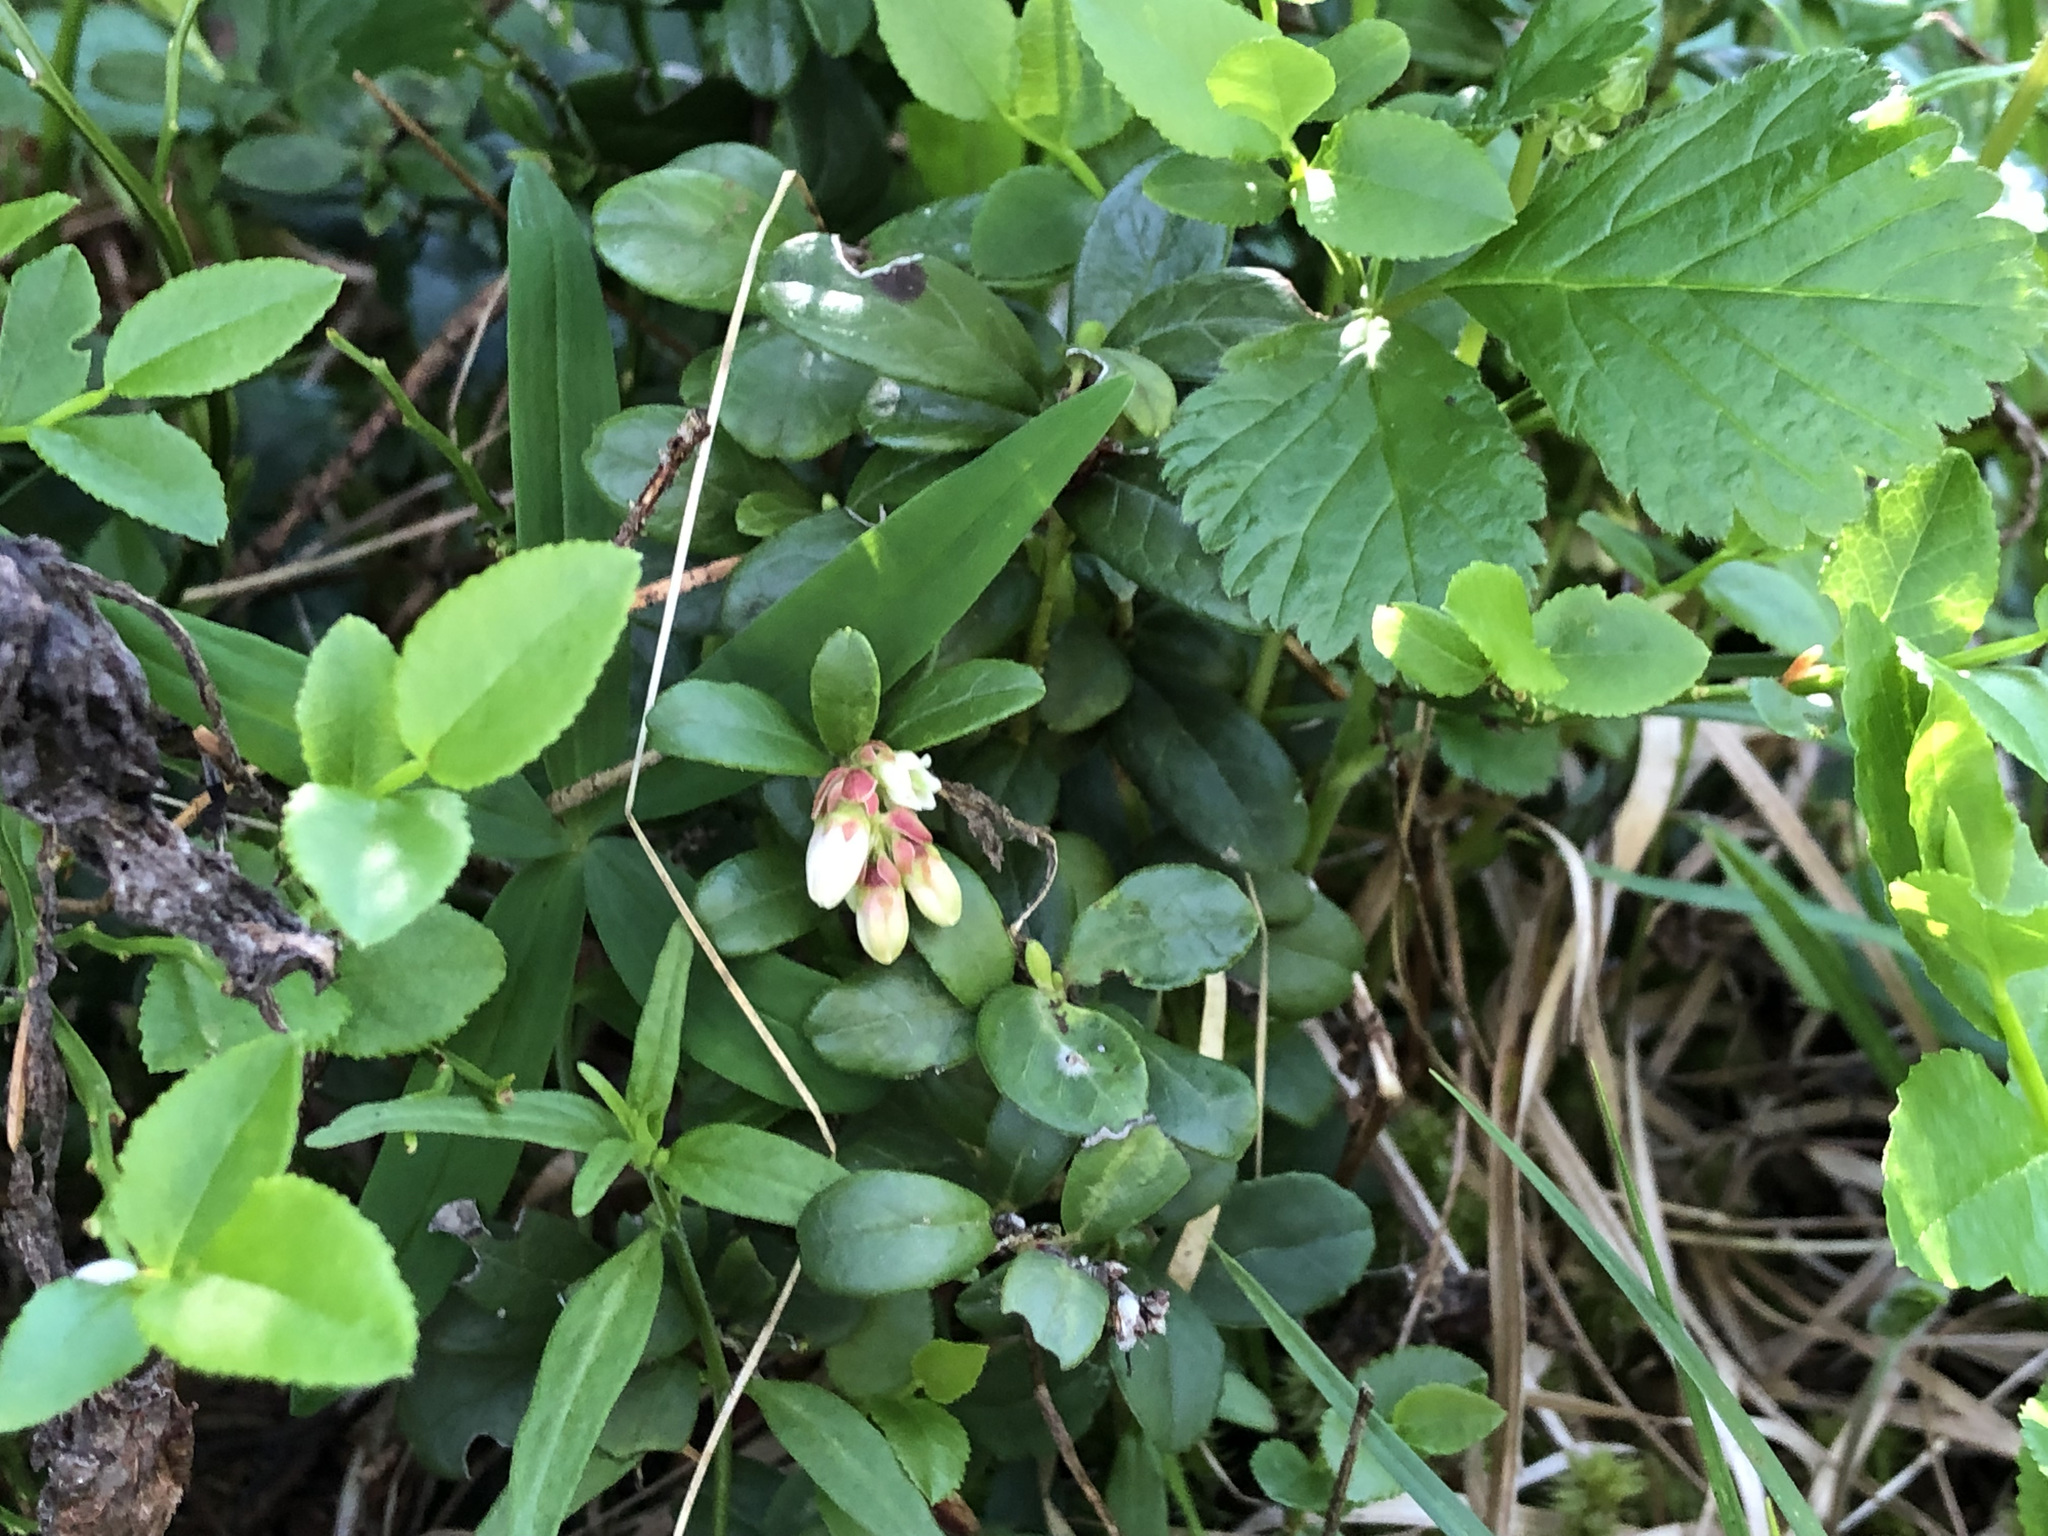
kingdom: Plantae
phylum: Tracheophyta
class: Magnoliopsida
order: Ericales
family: Ericaceae
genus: Vaccinium
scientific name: Vaccinium vitis-idaea
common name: Cowberry
